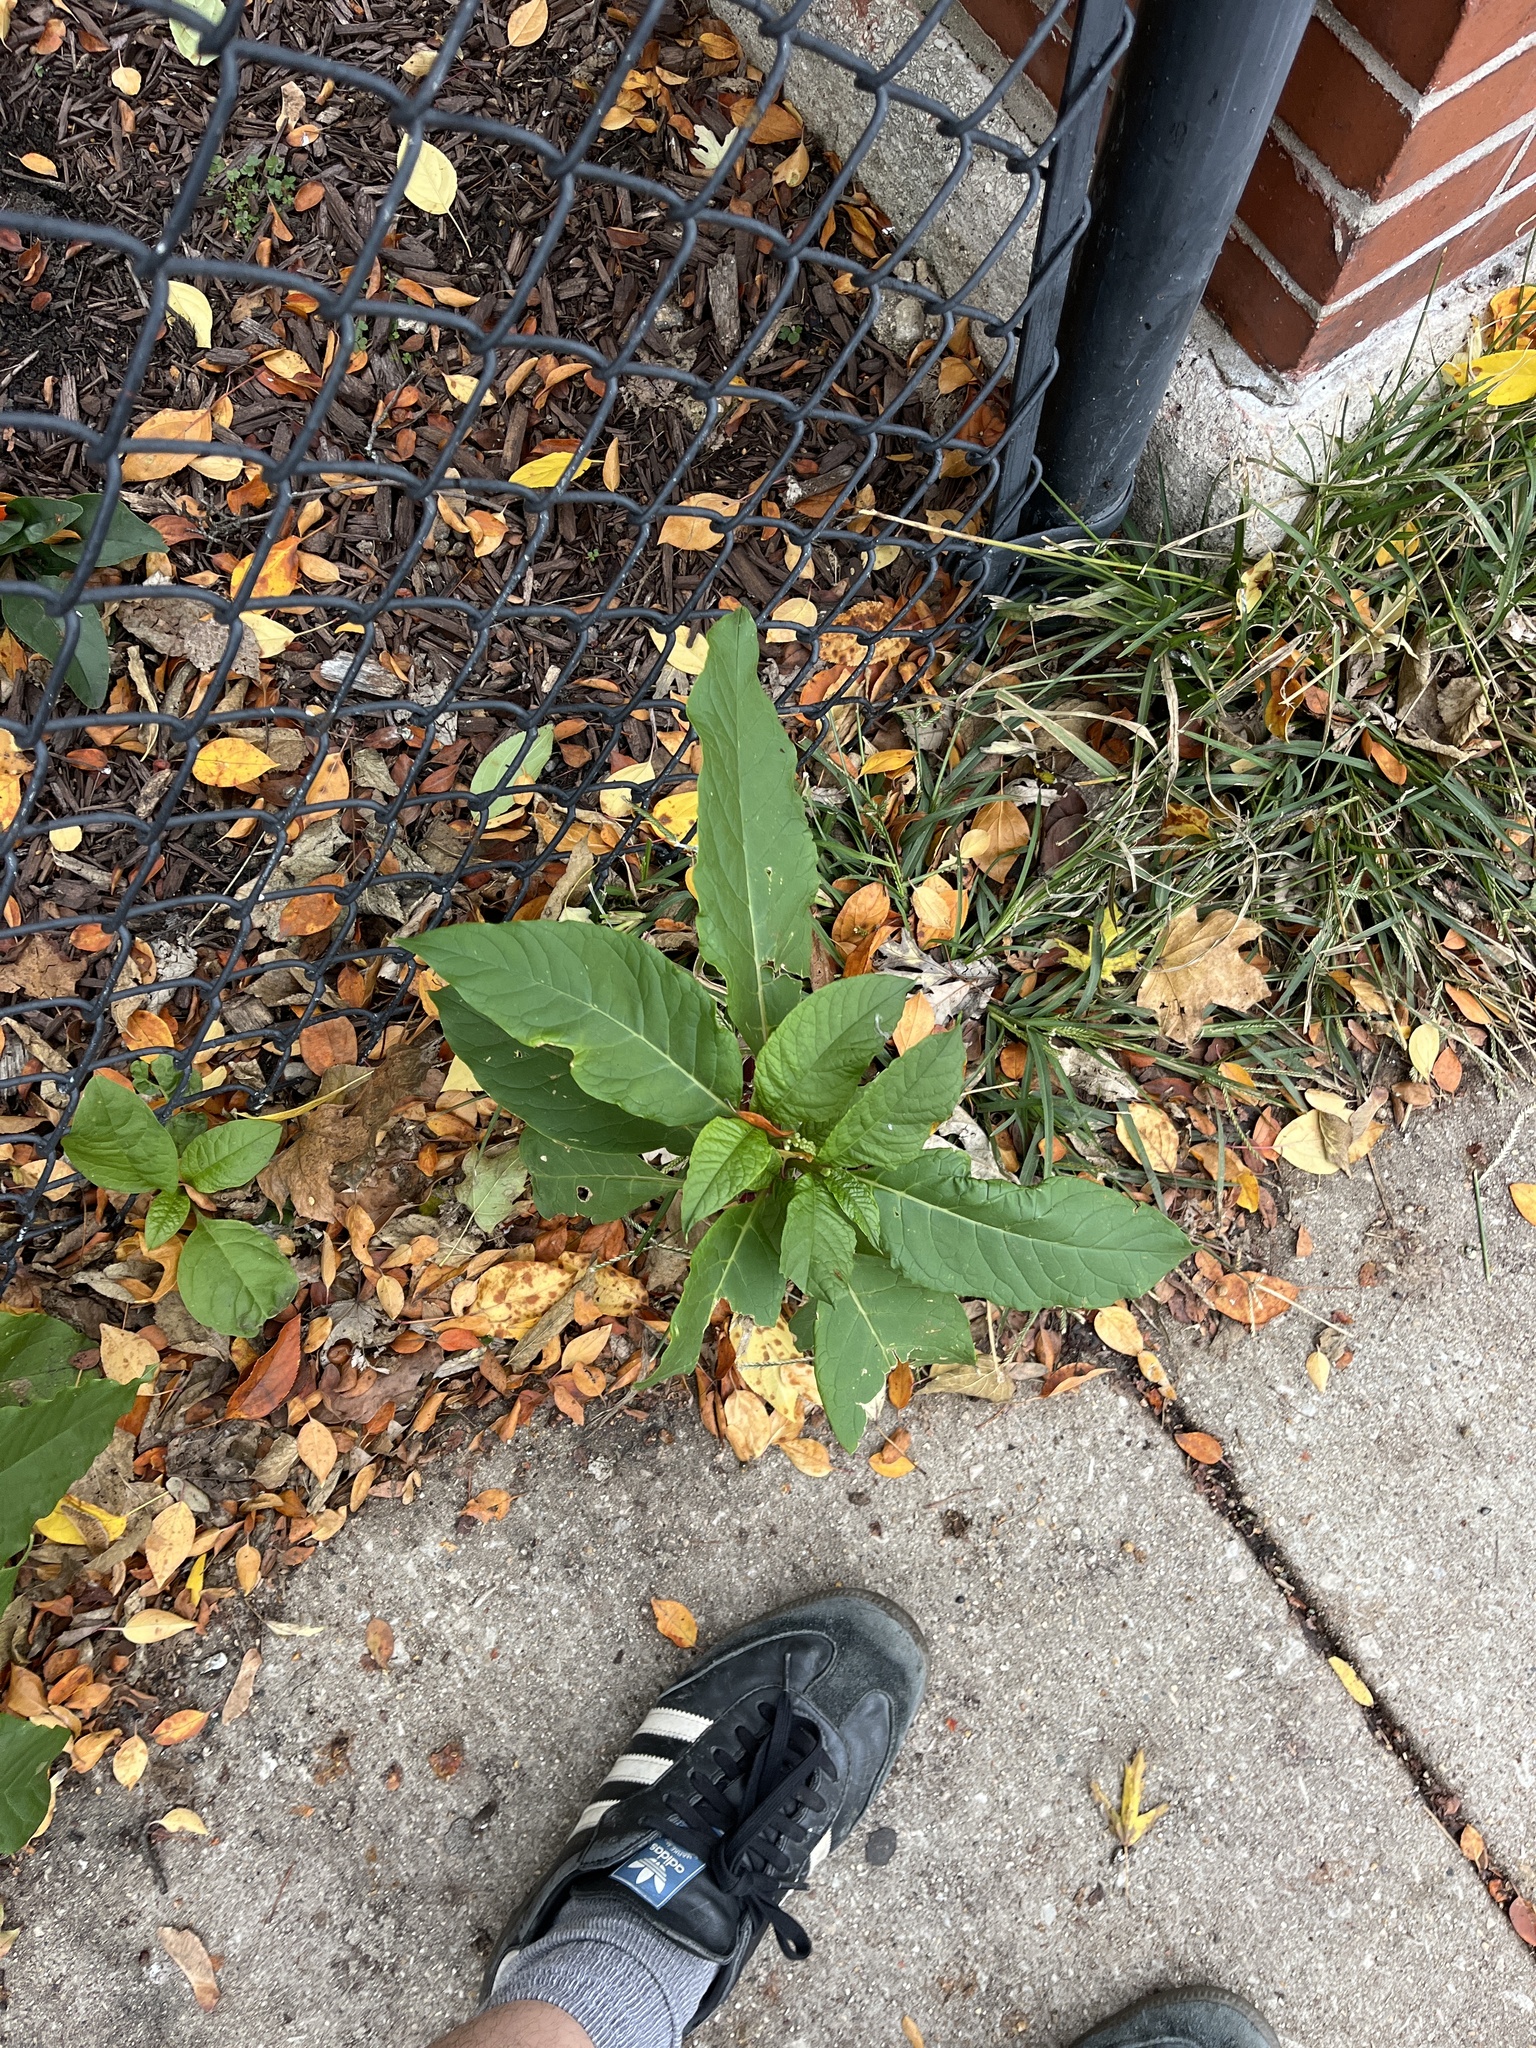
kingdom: Plantae
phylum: Tracheophyta
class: Magnoliopsida
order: Caryophyllales
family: Phytolaccaceae
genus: Phytolacca
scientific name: Phytolacca americana
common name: American pokeweed
